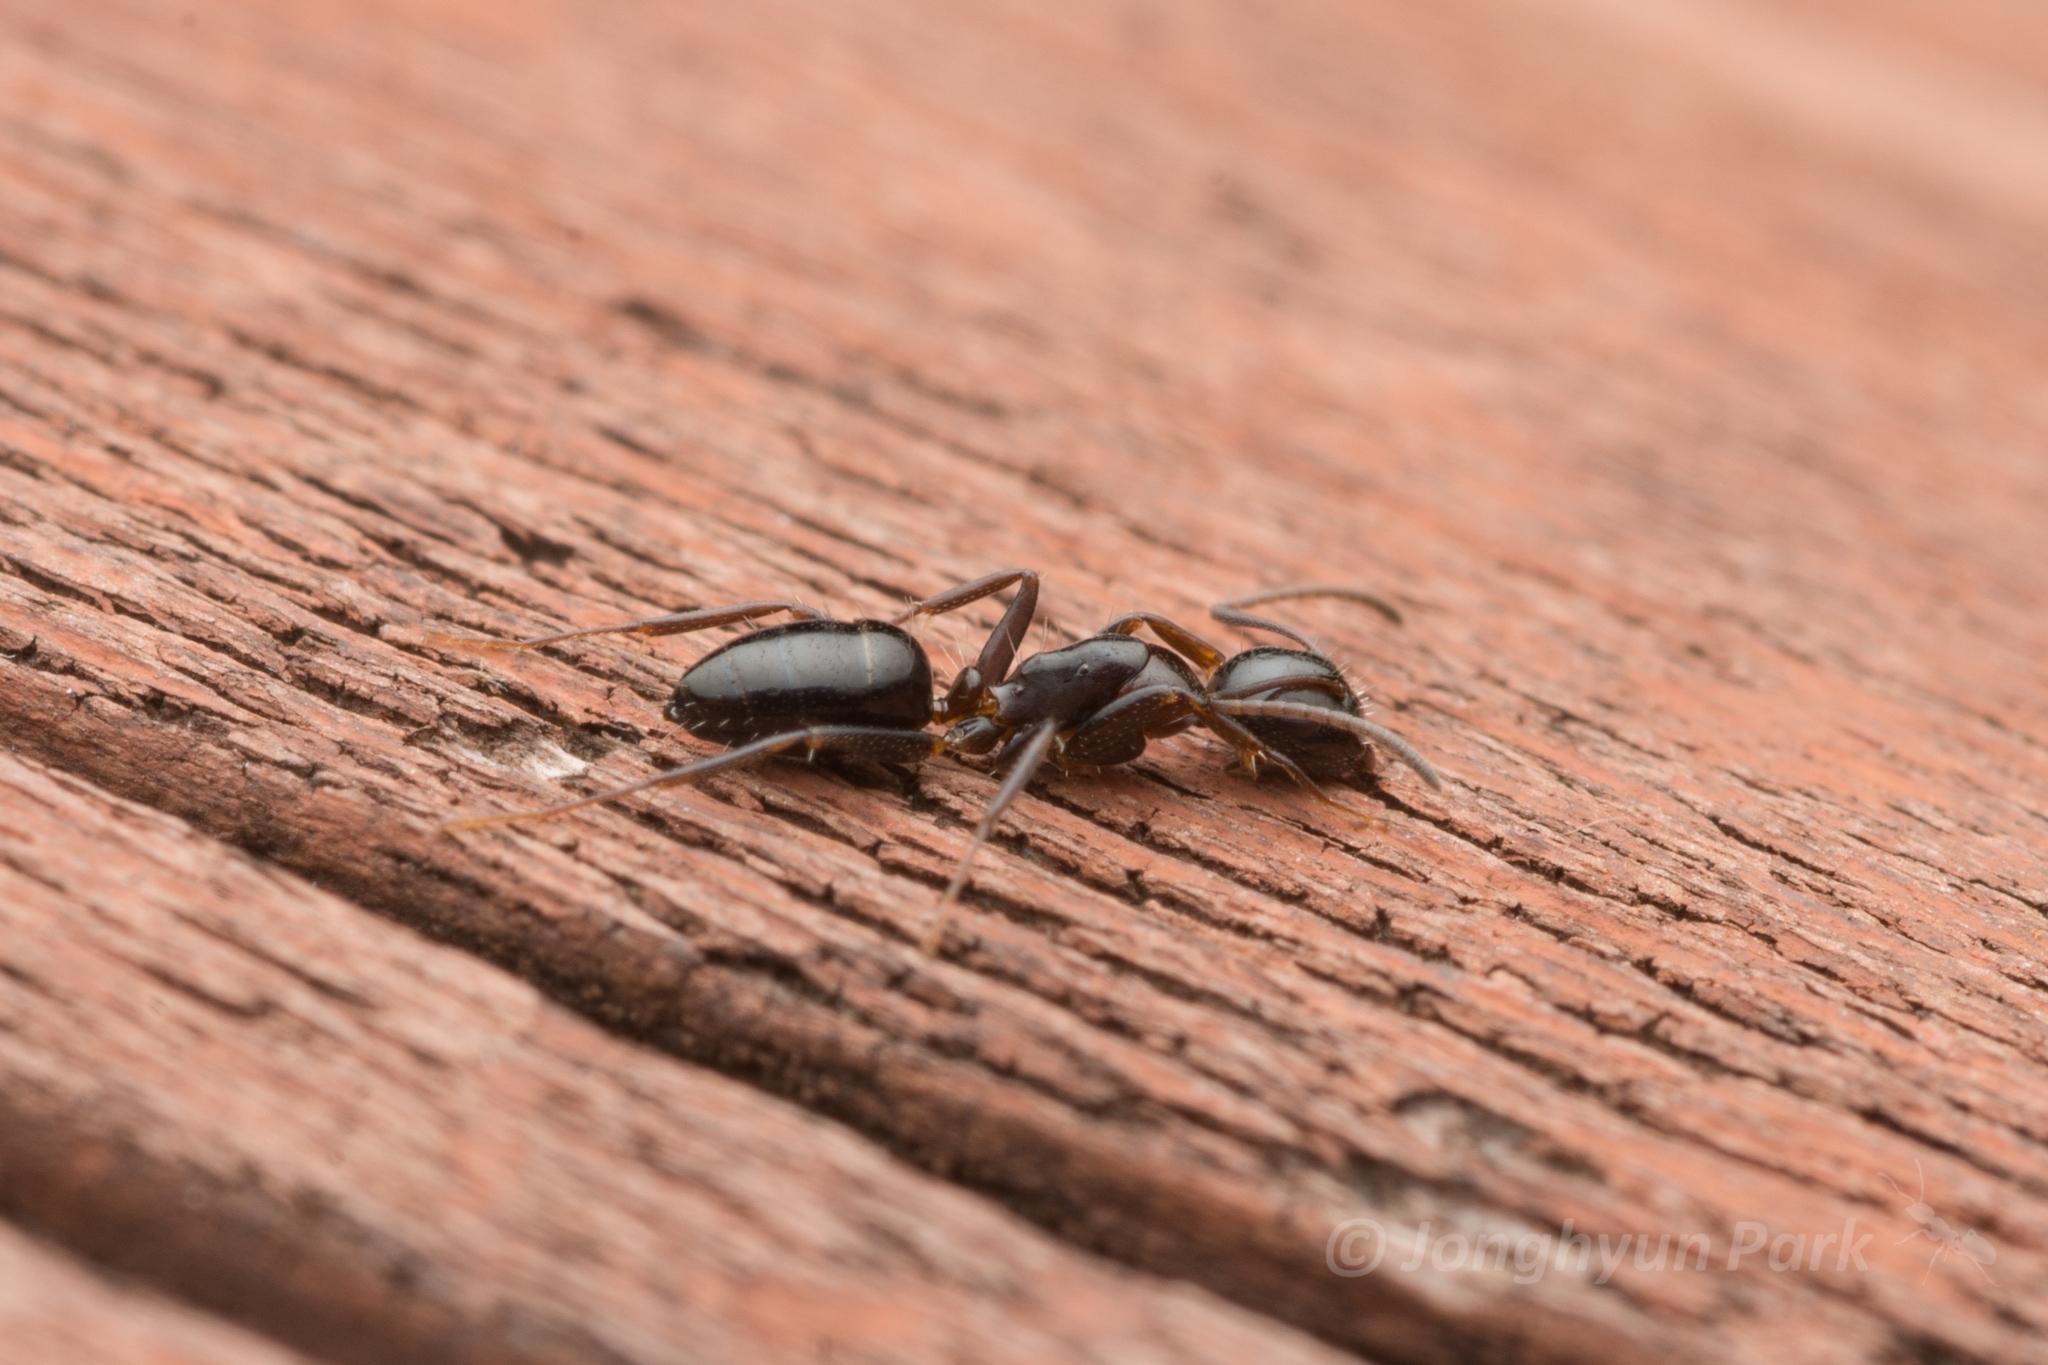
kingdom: Animalia
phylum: Arthropoda
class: Insecta
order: Hymenoptera
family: Formicidae
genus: Camponotus
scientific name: Camponotus vitiosus
